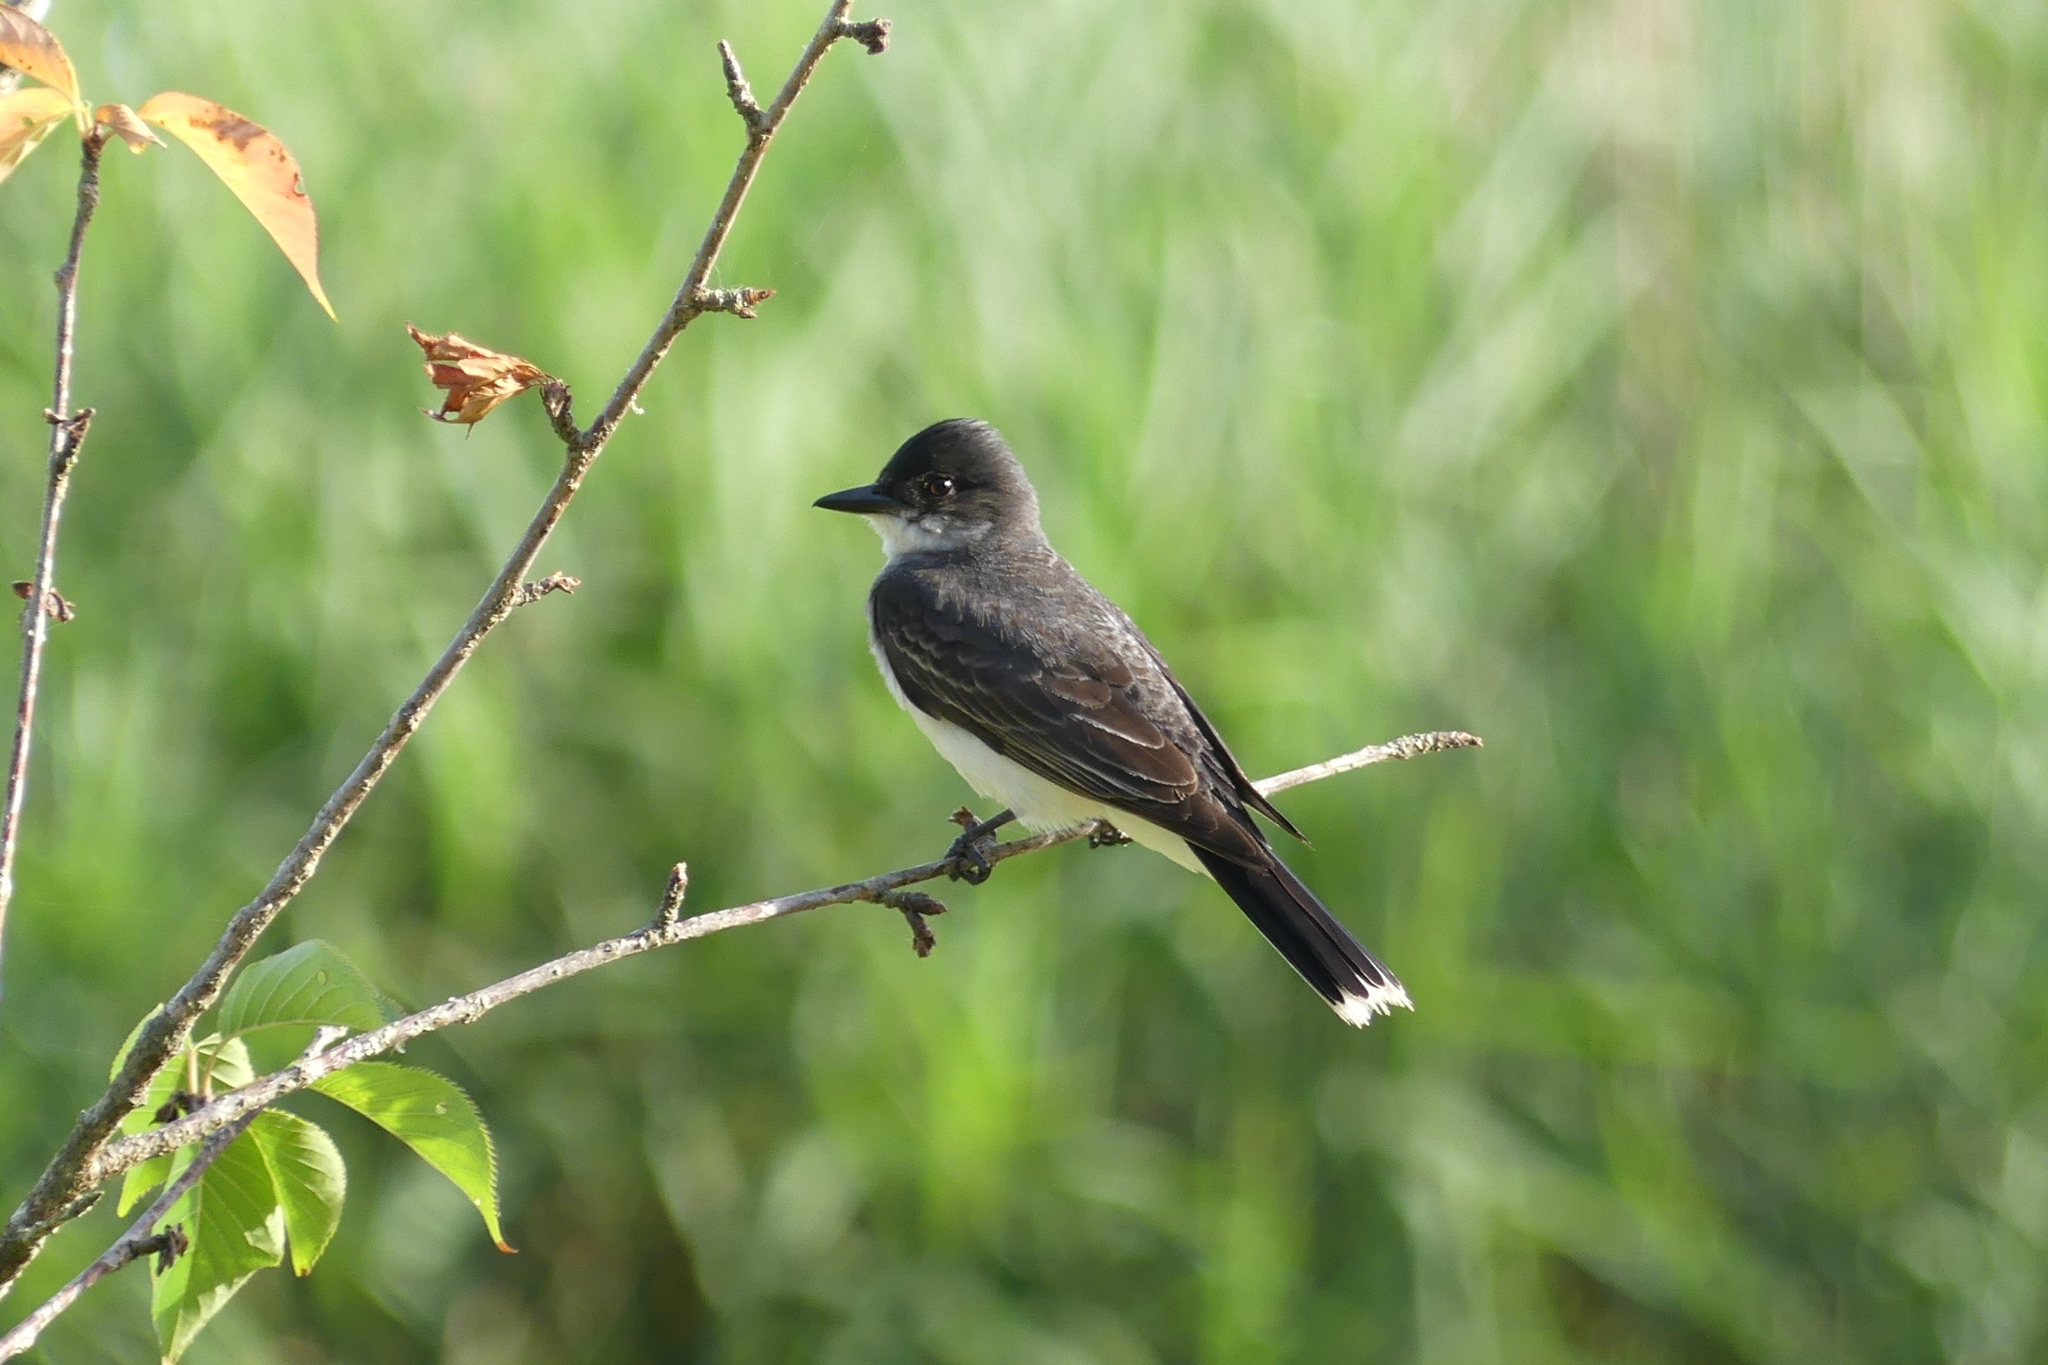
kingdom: Animalia
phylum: Chordata
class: Aves
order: Passeriformes
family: Tyrannidae
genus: Tyrannus
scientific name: Tyrannus tyrannus
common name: Eastern kingbird
